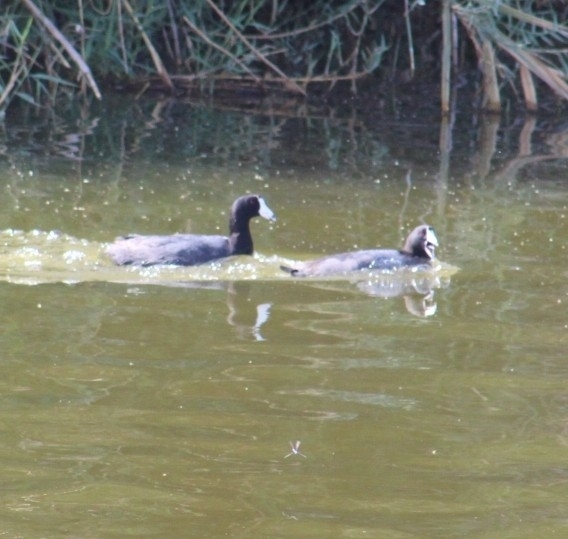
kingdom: Animalia
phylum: Chordata
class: Aves
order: Gruiformes
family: Rallidae
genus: Fulica
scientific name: Fulica americana
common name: American coot
